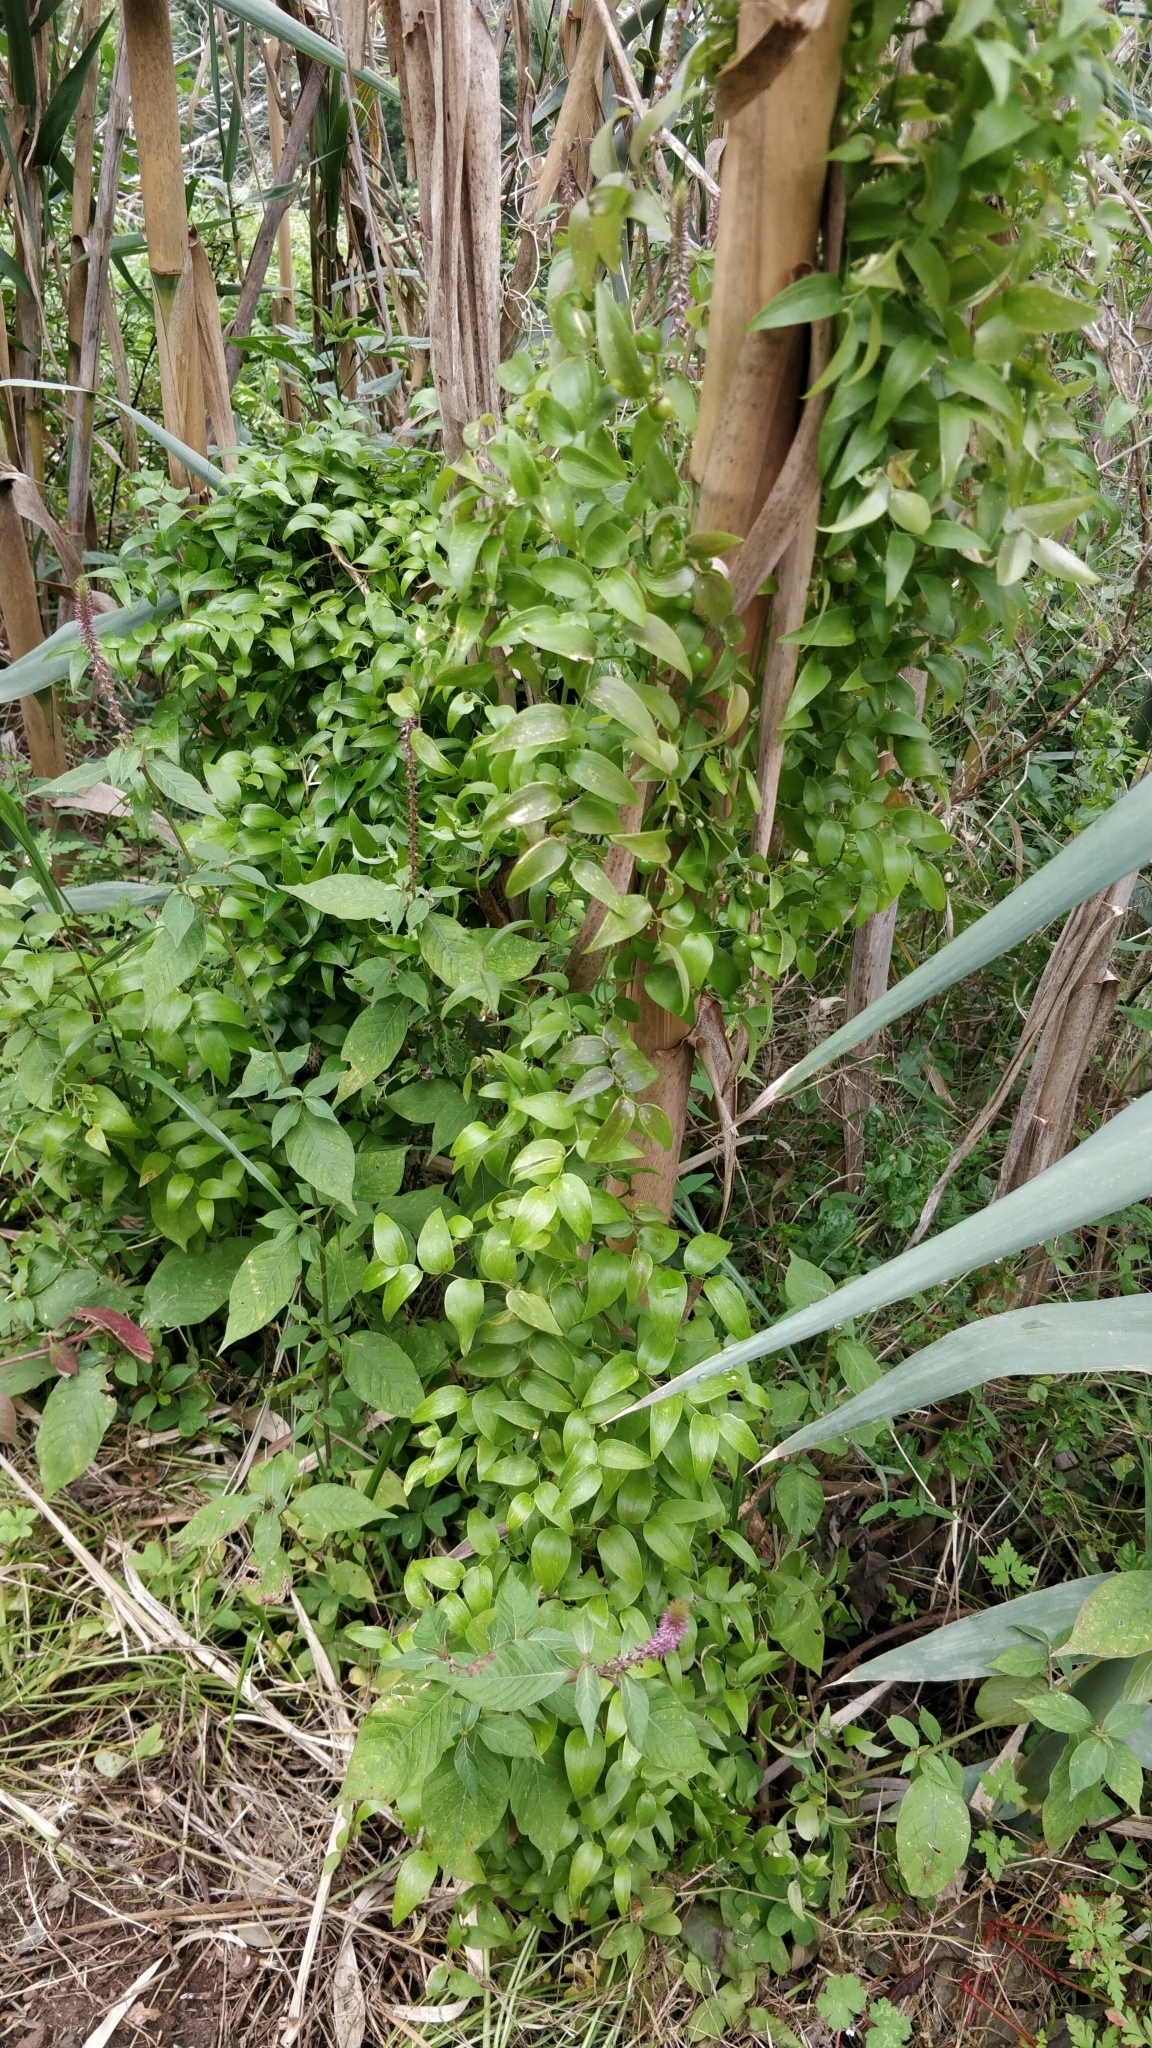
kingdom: Plantae
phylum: Tracheophyta
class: Liliopsida
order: Asparagales
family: Asparagaceae
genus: Asparagus
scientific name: Asparagus asparagoides
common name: African asparagus fern
